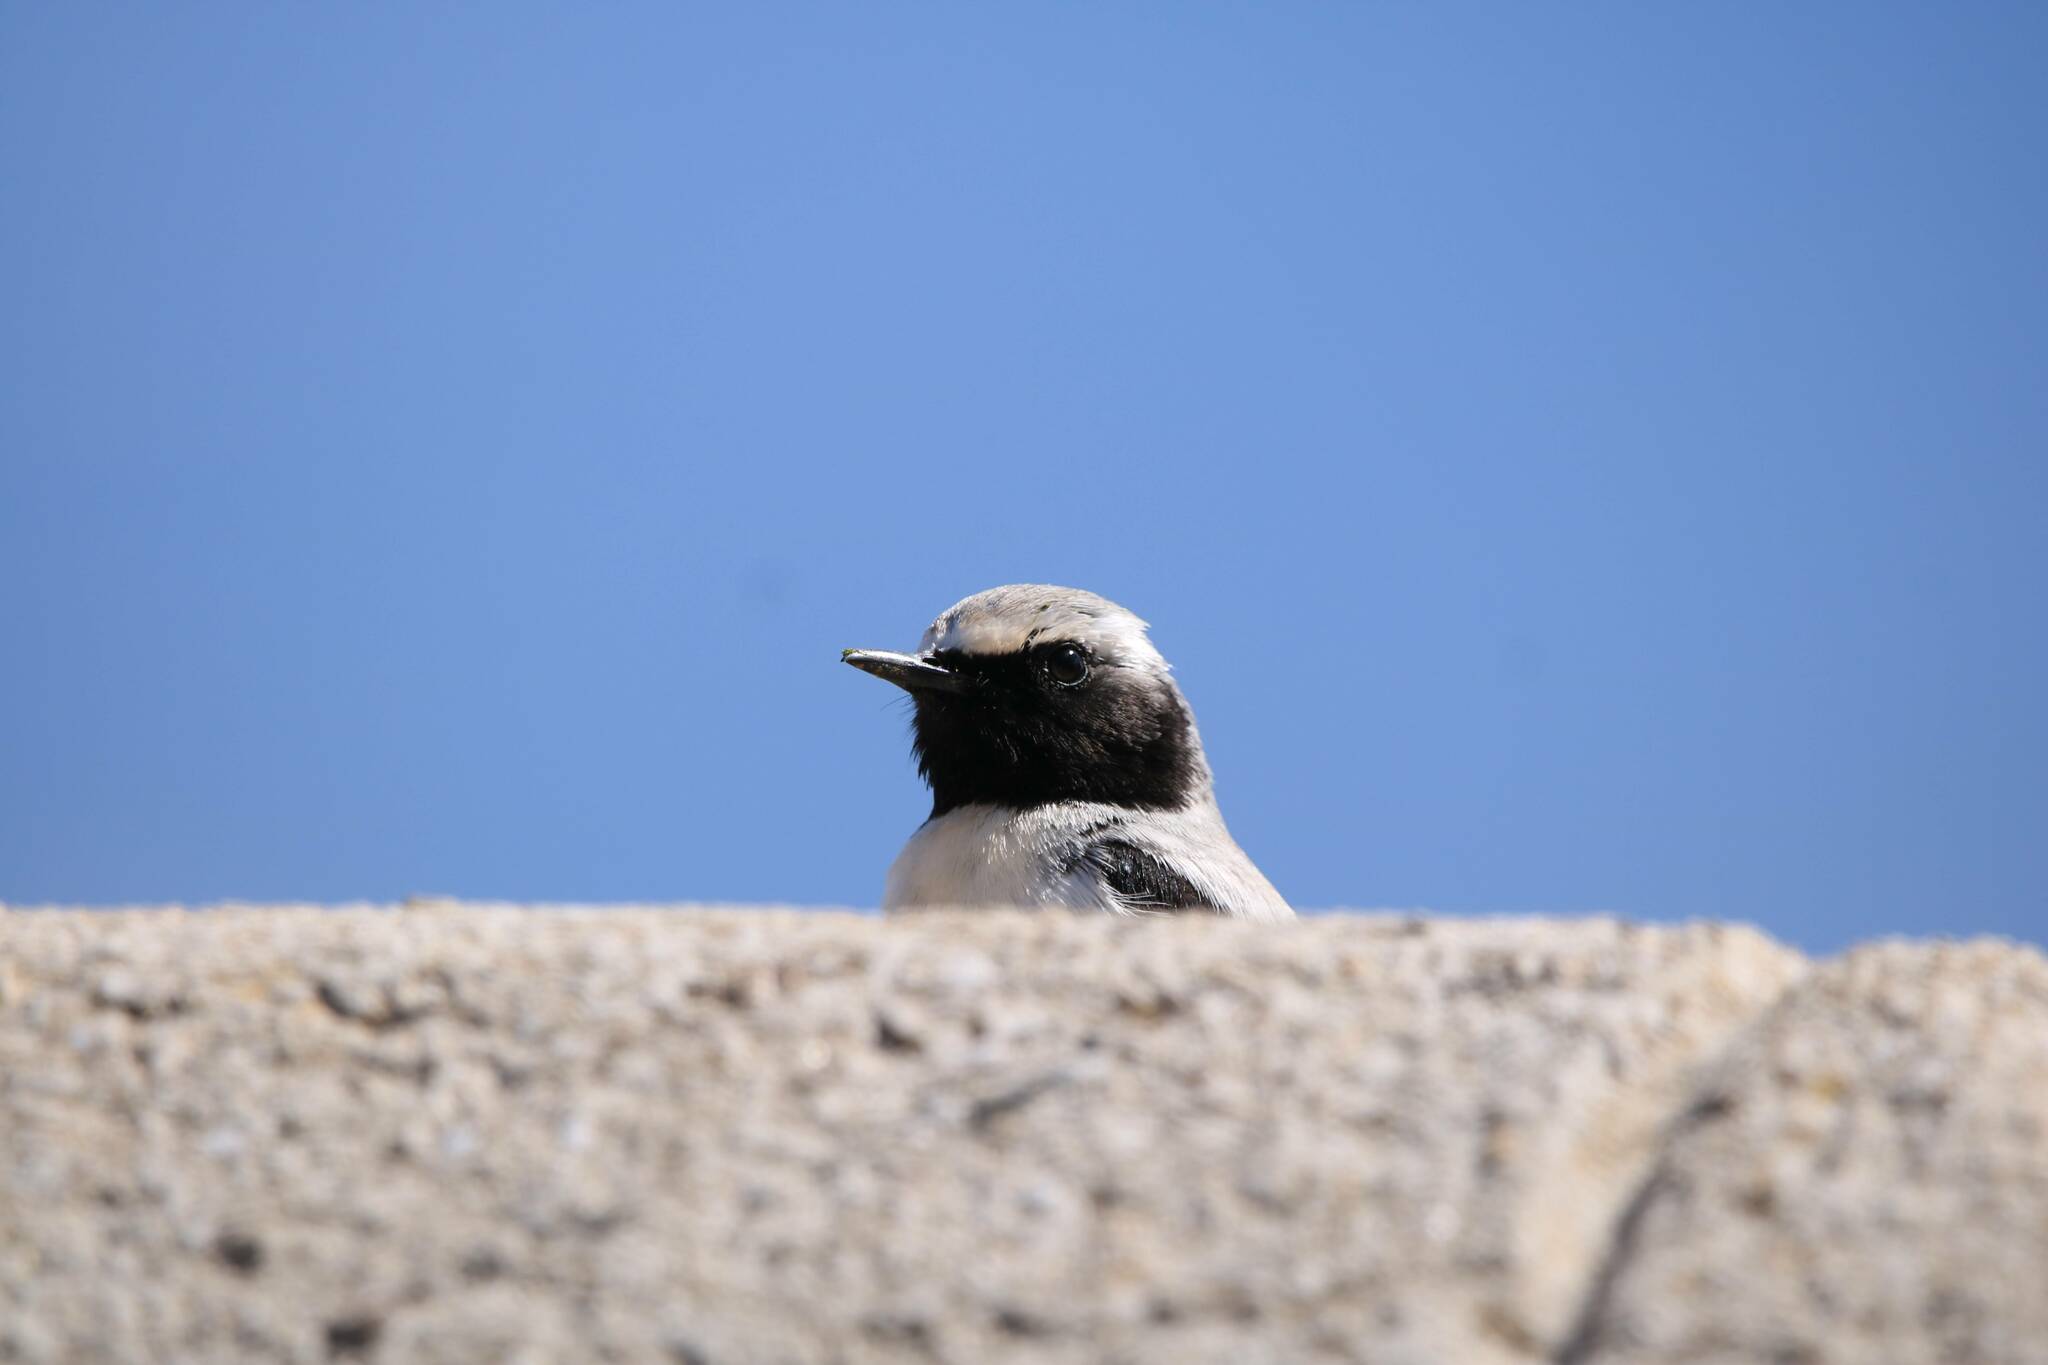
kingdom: Animalia
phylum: Chordata
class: Aves
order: Passeriformes
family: Muscicapidae
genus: Oenanthe
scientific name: Oenanthe oenanthe
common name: Northern wheatear
